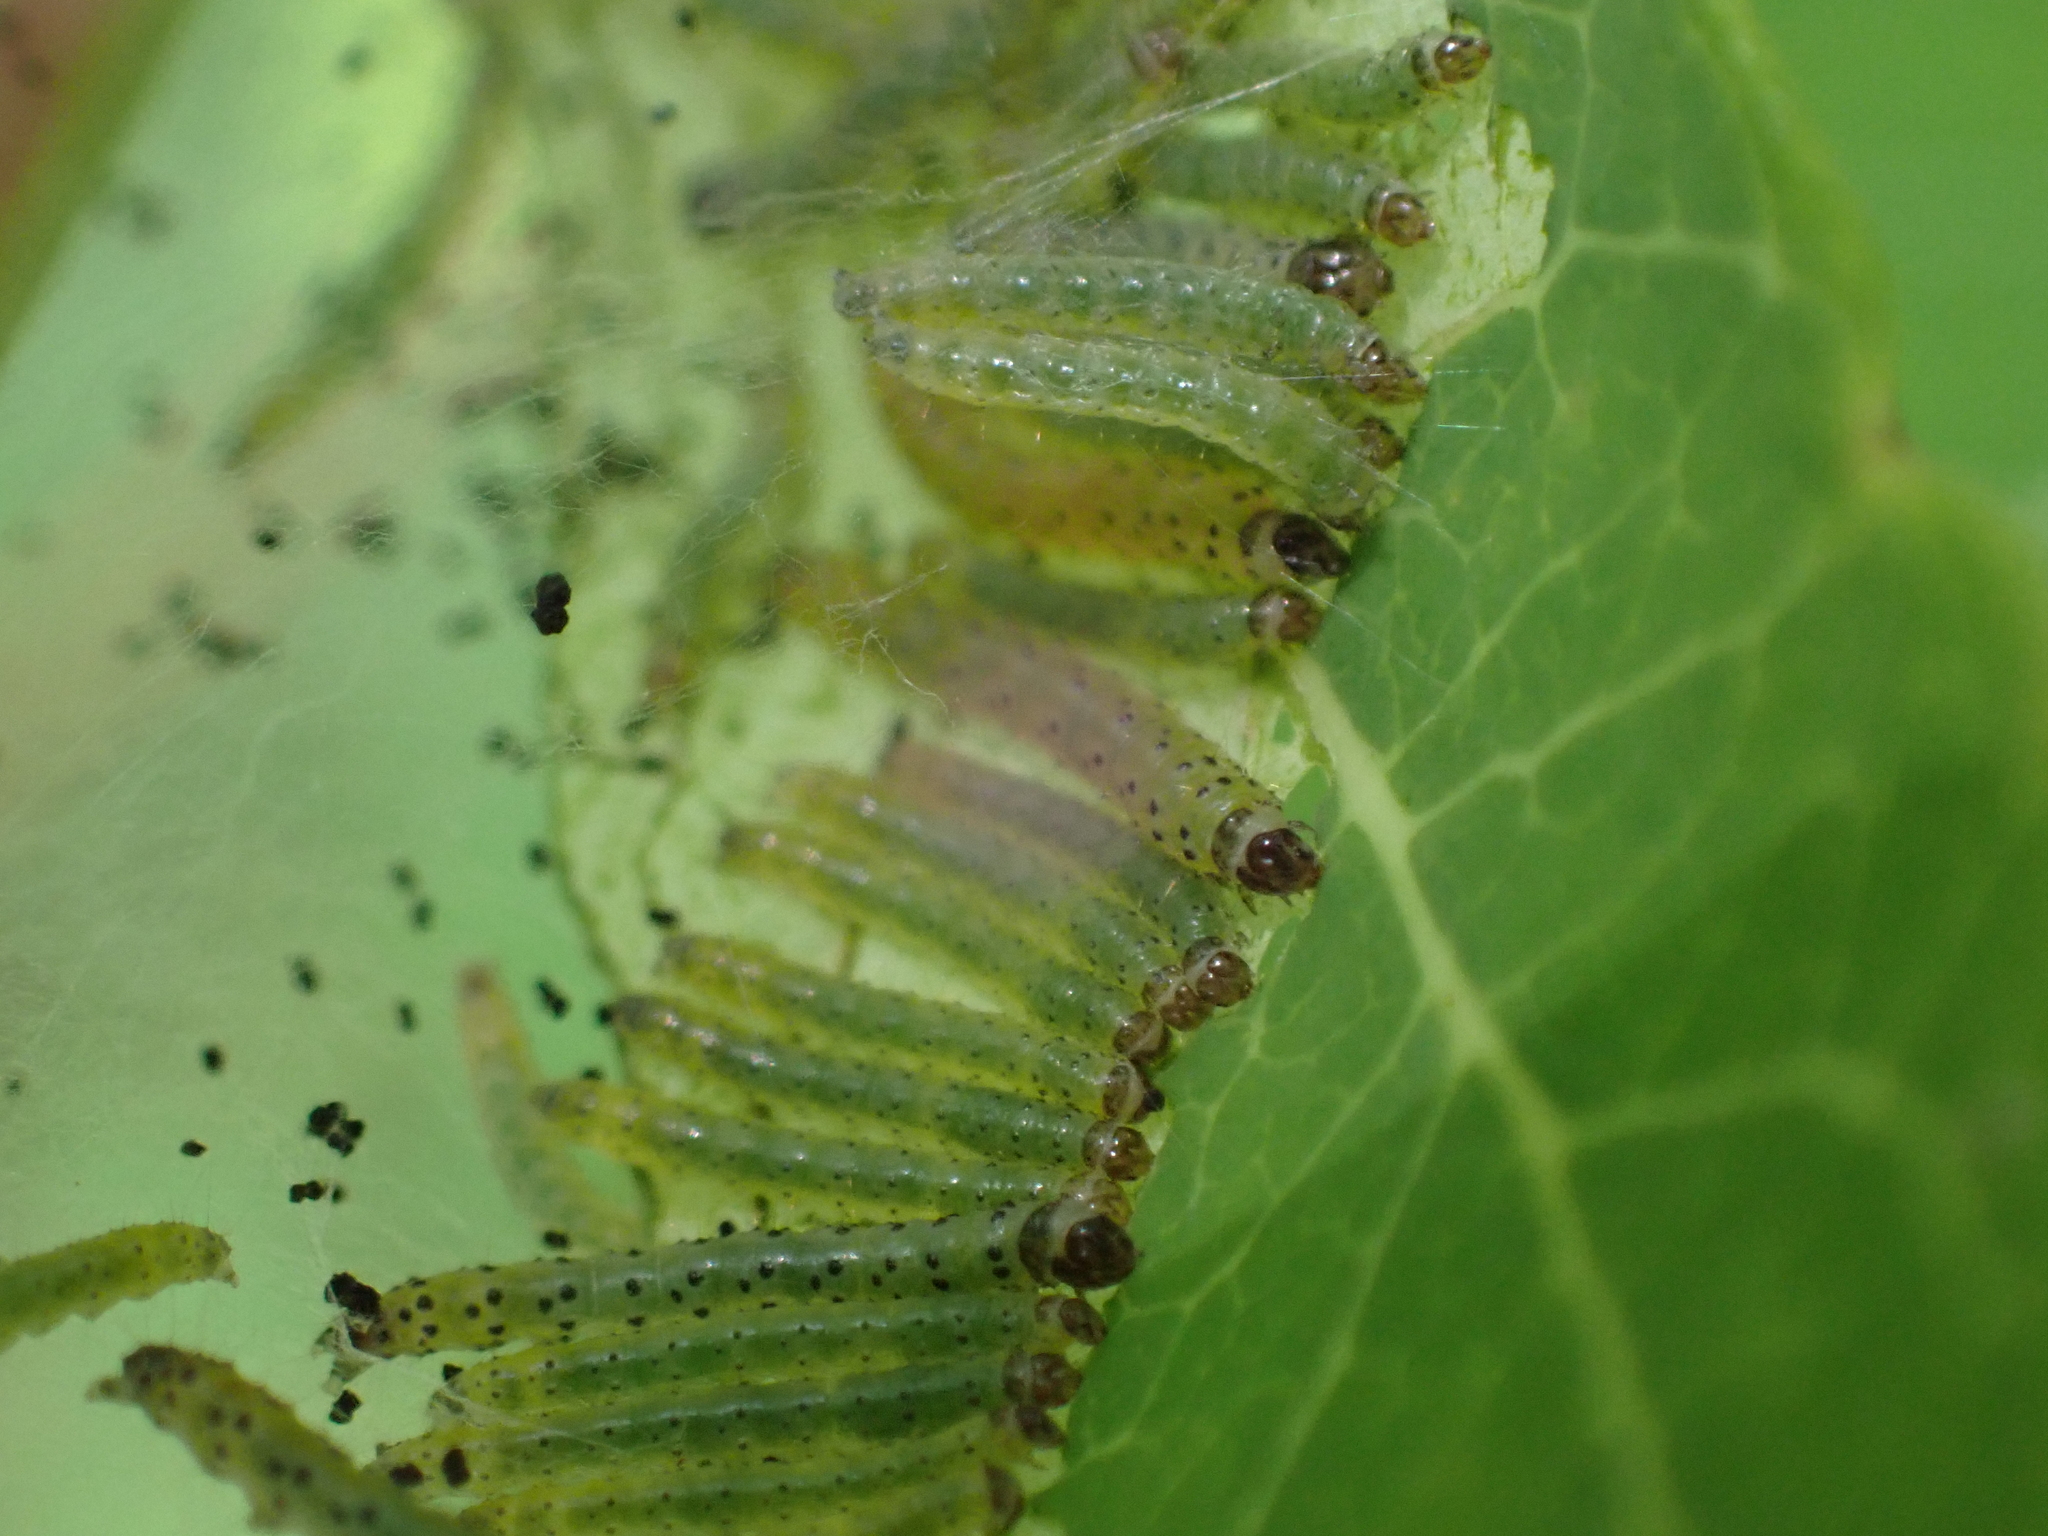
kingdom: Animalia
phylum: Arthropoda
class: Insecta
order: Lepidoptera
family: Crambidae
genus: Saucrobotys
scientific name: Saucrobotys futilalis
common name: Dogbane saucrobotys moth
